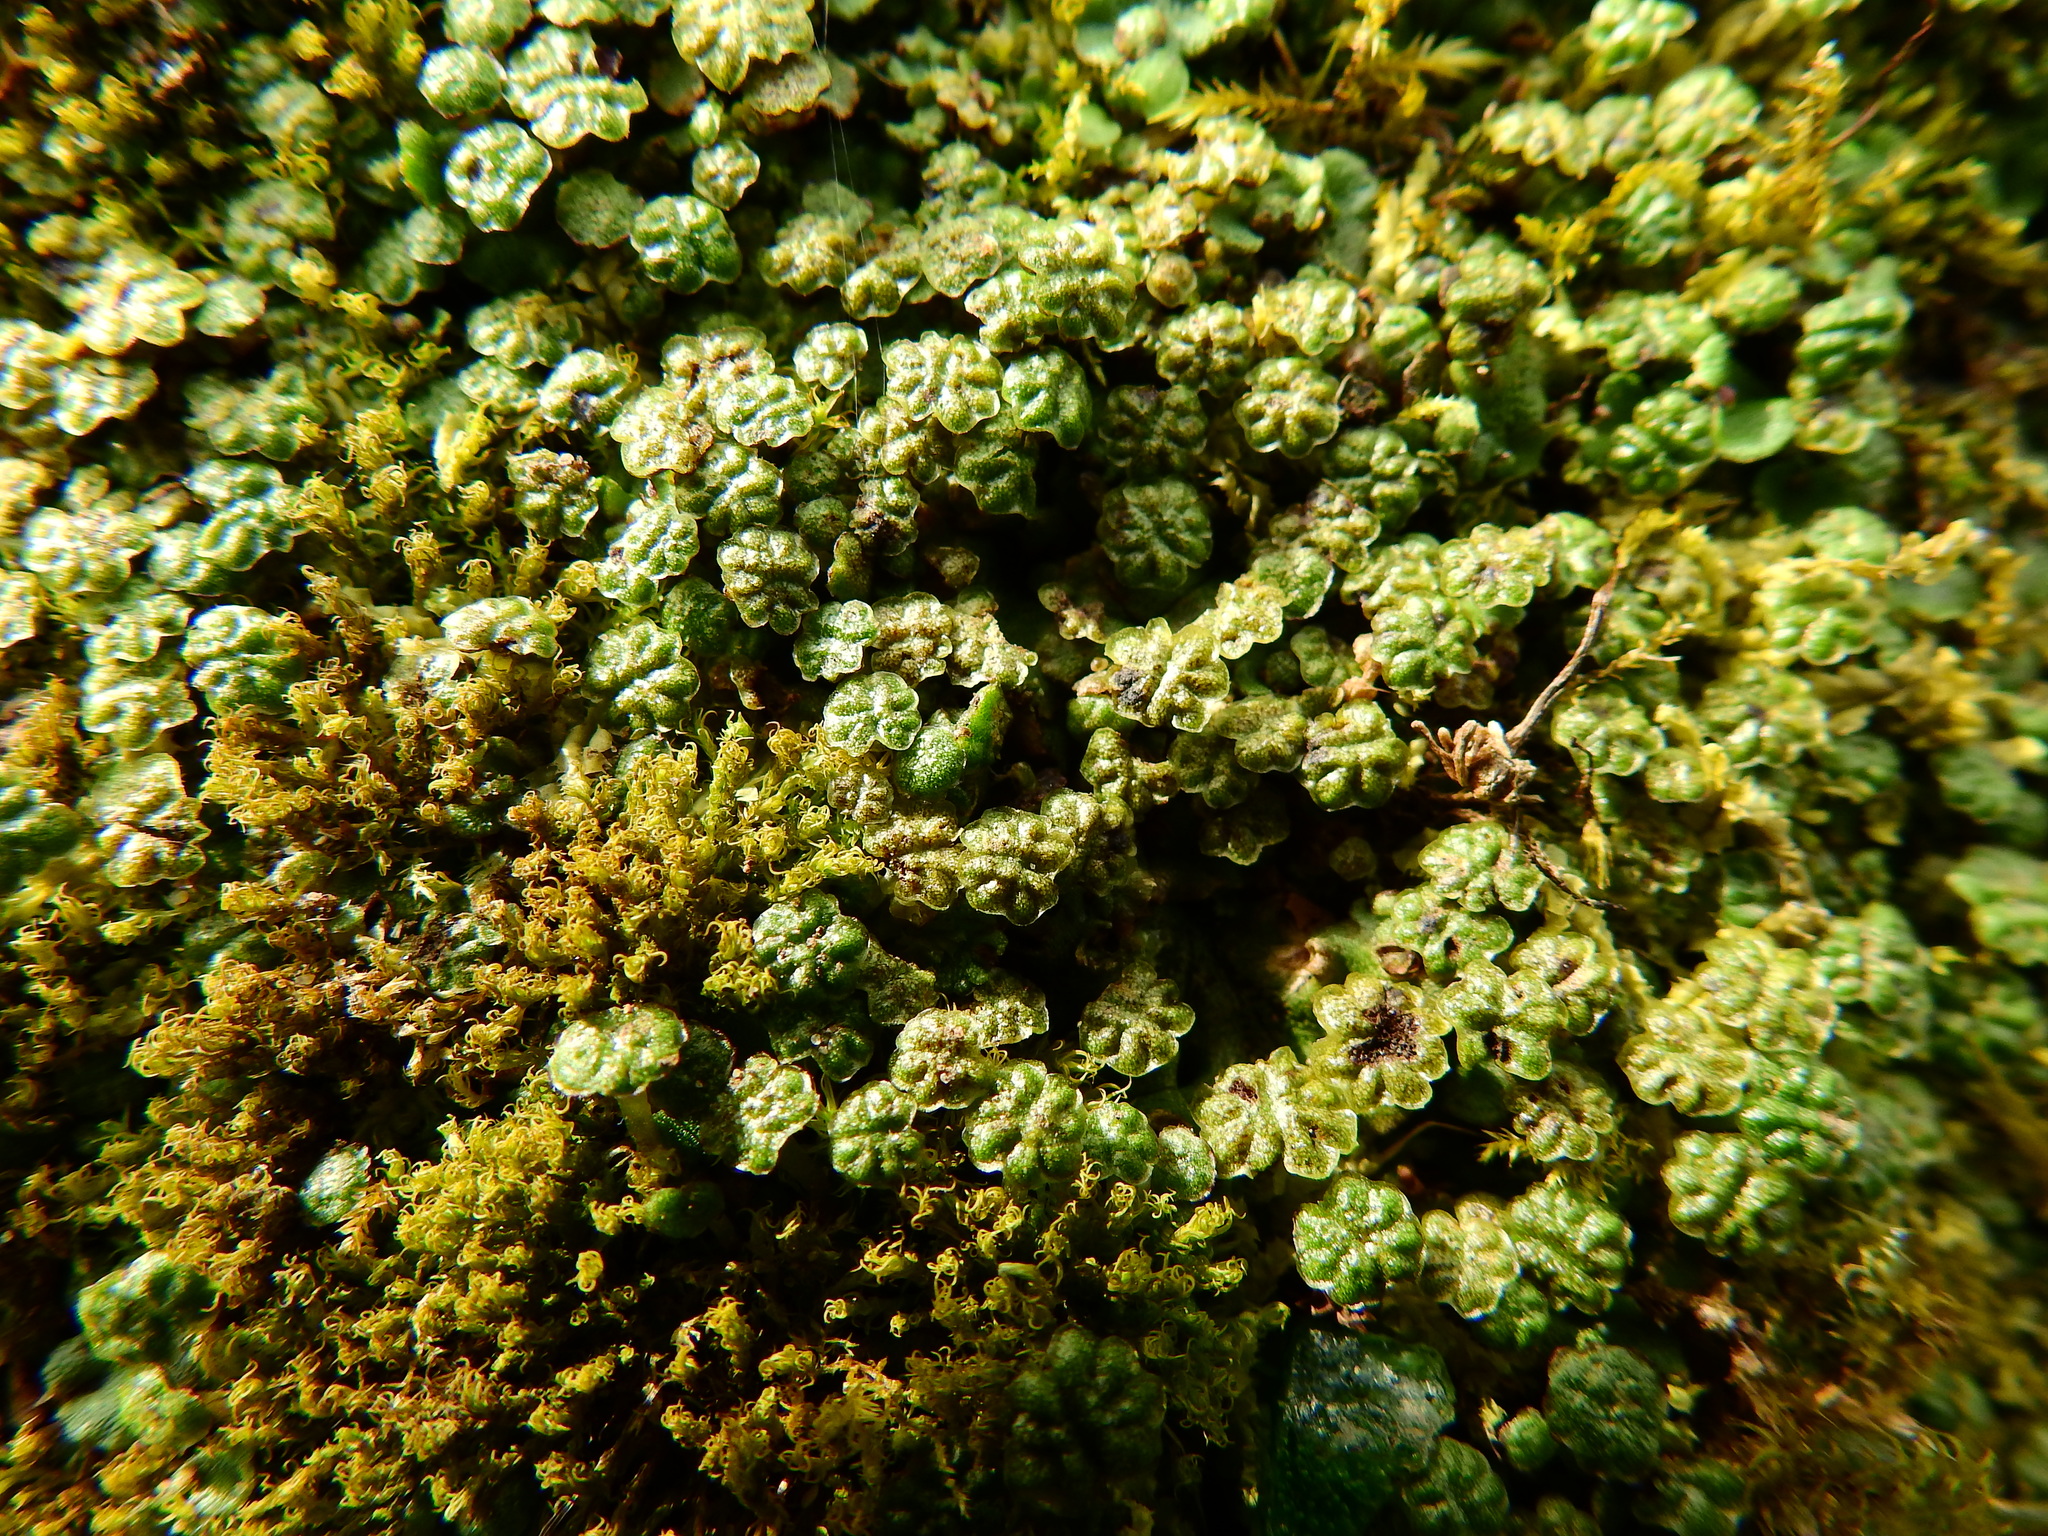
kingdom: Plantae
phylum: Marchantiophyta
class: Marchantiopsida
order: Marchantiales
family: Marchantiaceae
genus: Marchantia
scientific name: Marchantia polymorpha
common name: Common liverwort
